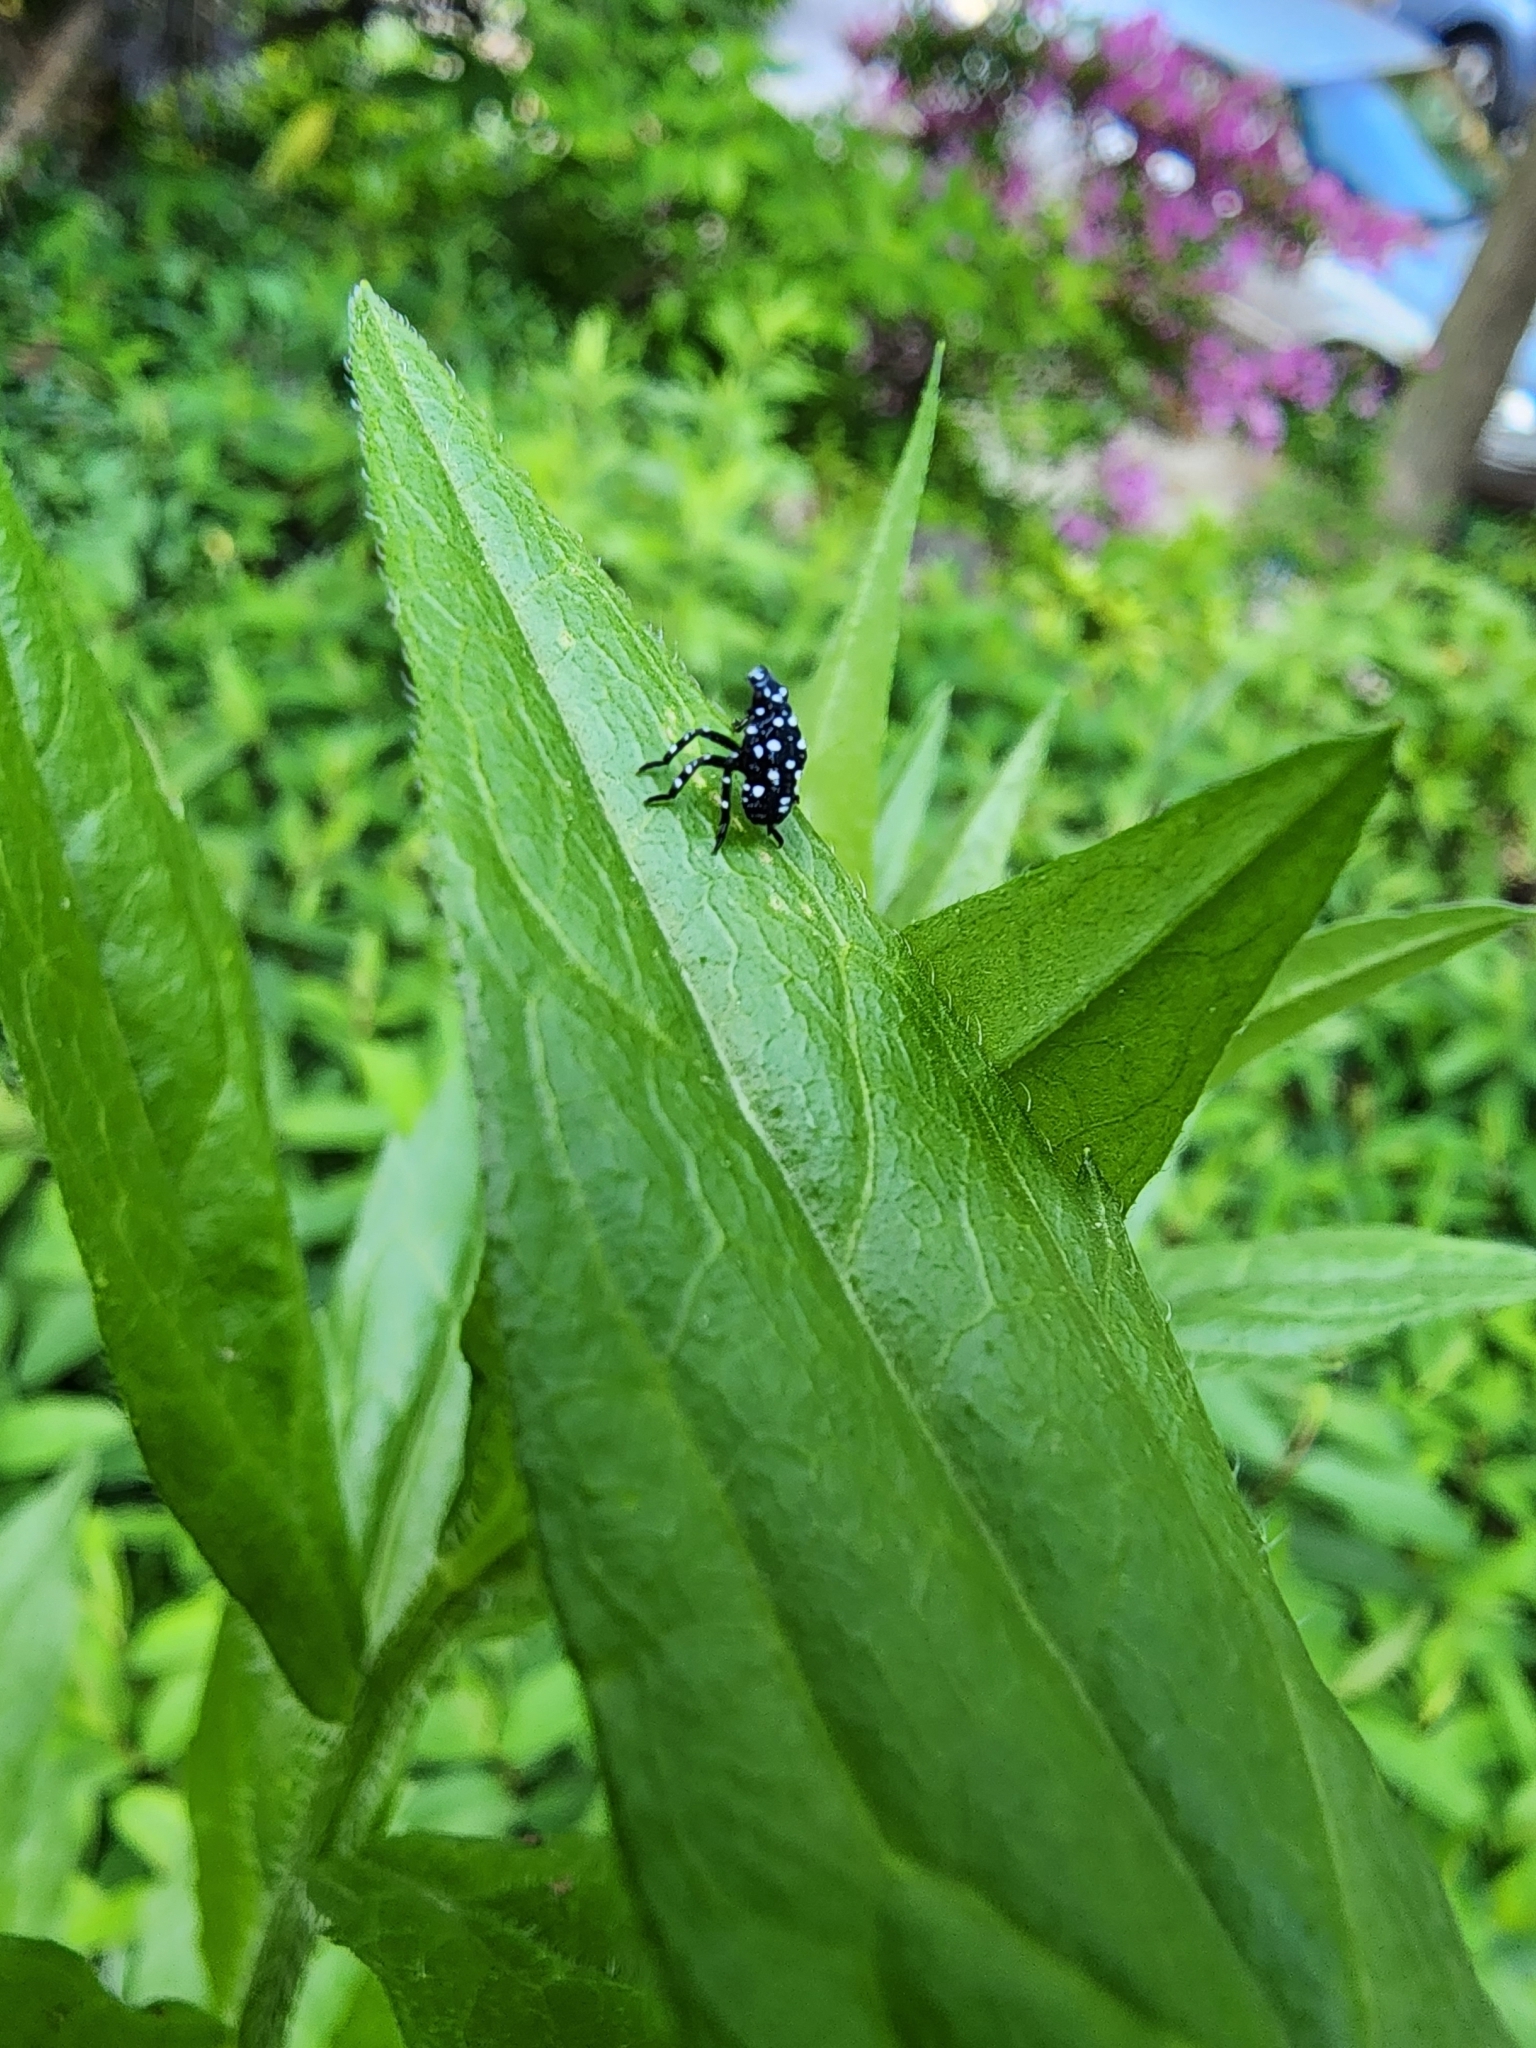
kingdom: Animalia
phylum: Arthropoda
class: Insecta
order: Hemiptera
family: Fulgoridae
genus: Lycorma
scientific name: Lycorma delicatula
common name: Spotted lanternfly
